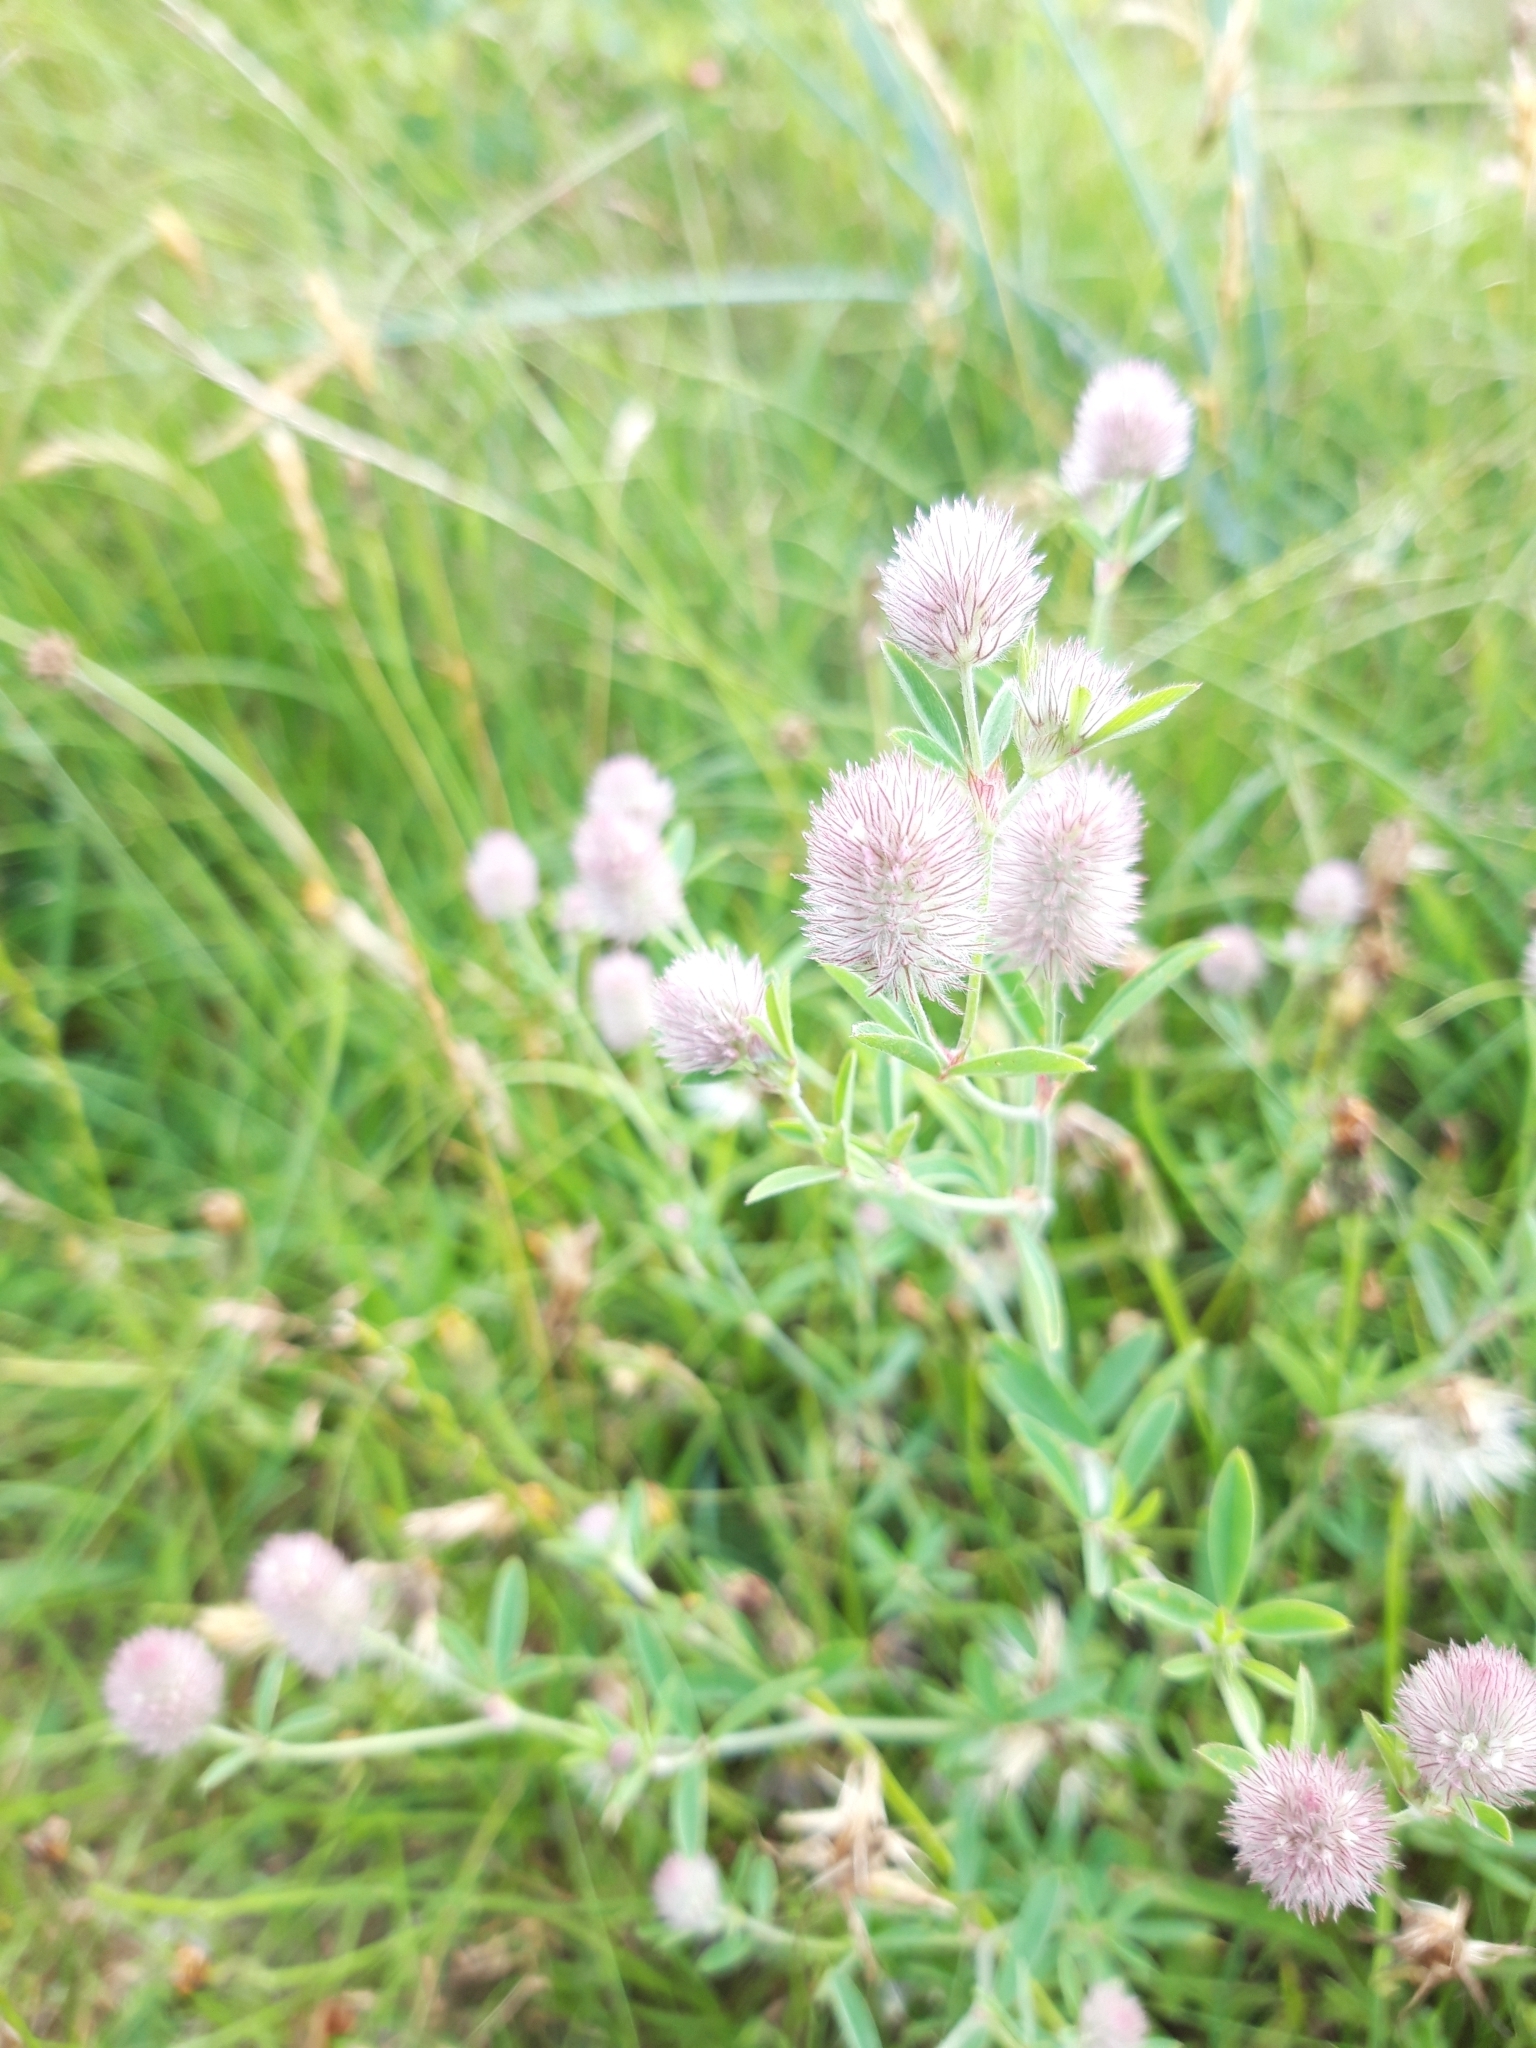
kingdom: Plantae
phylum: Tracheophyta
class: Magnoliopsida
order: Fabales
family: Fabaceae
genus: Trifolium
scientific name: Trifolium arvense
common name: Hare's-foot clover
